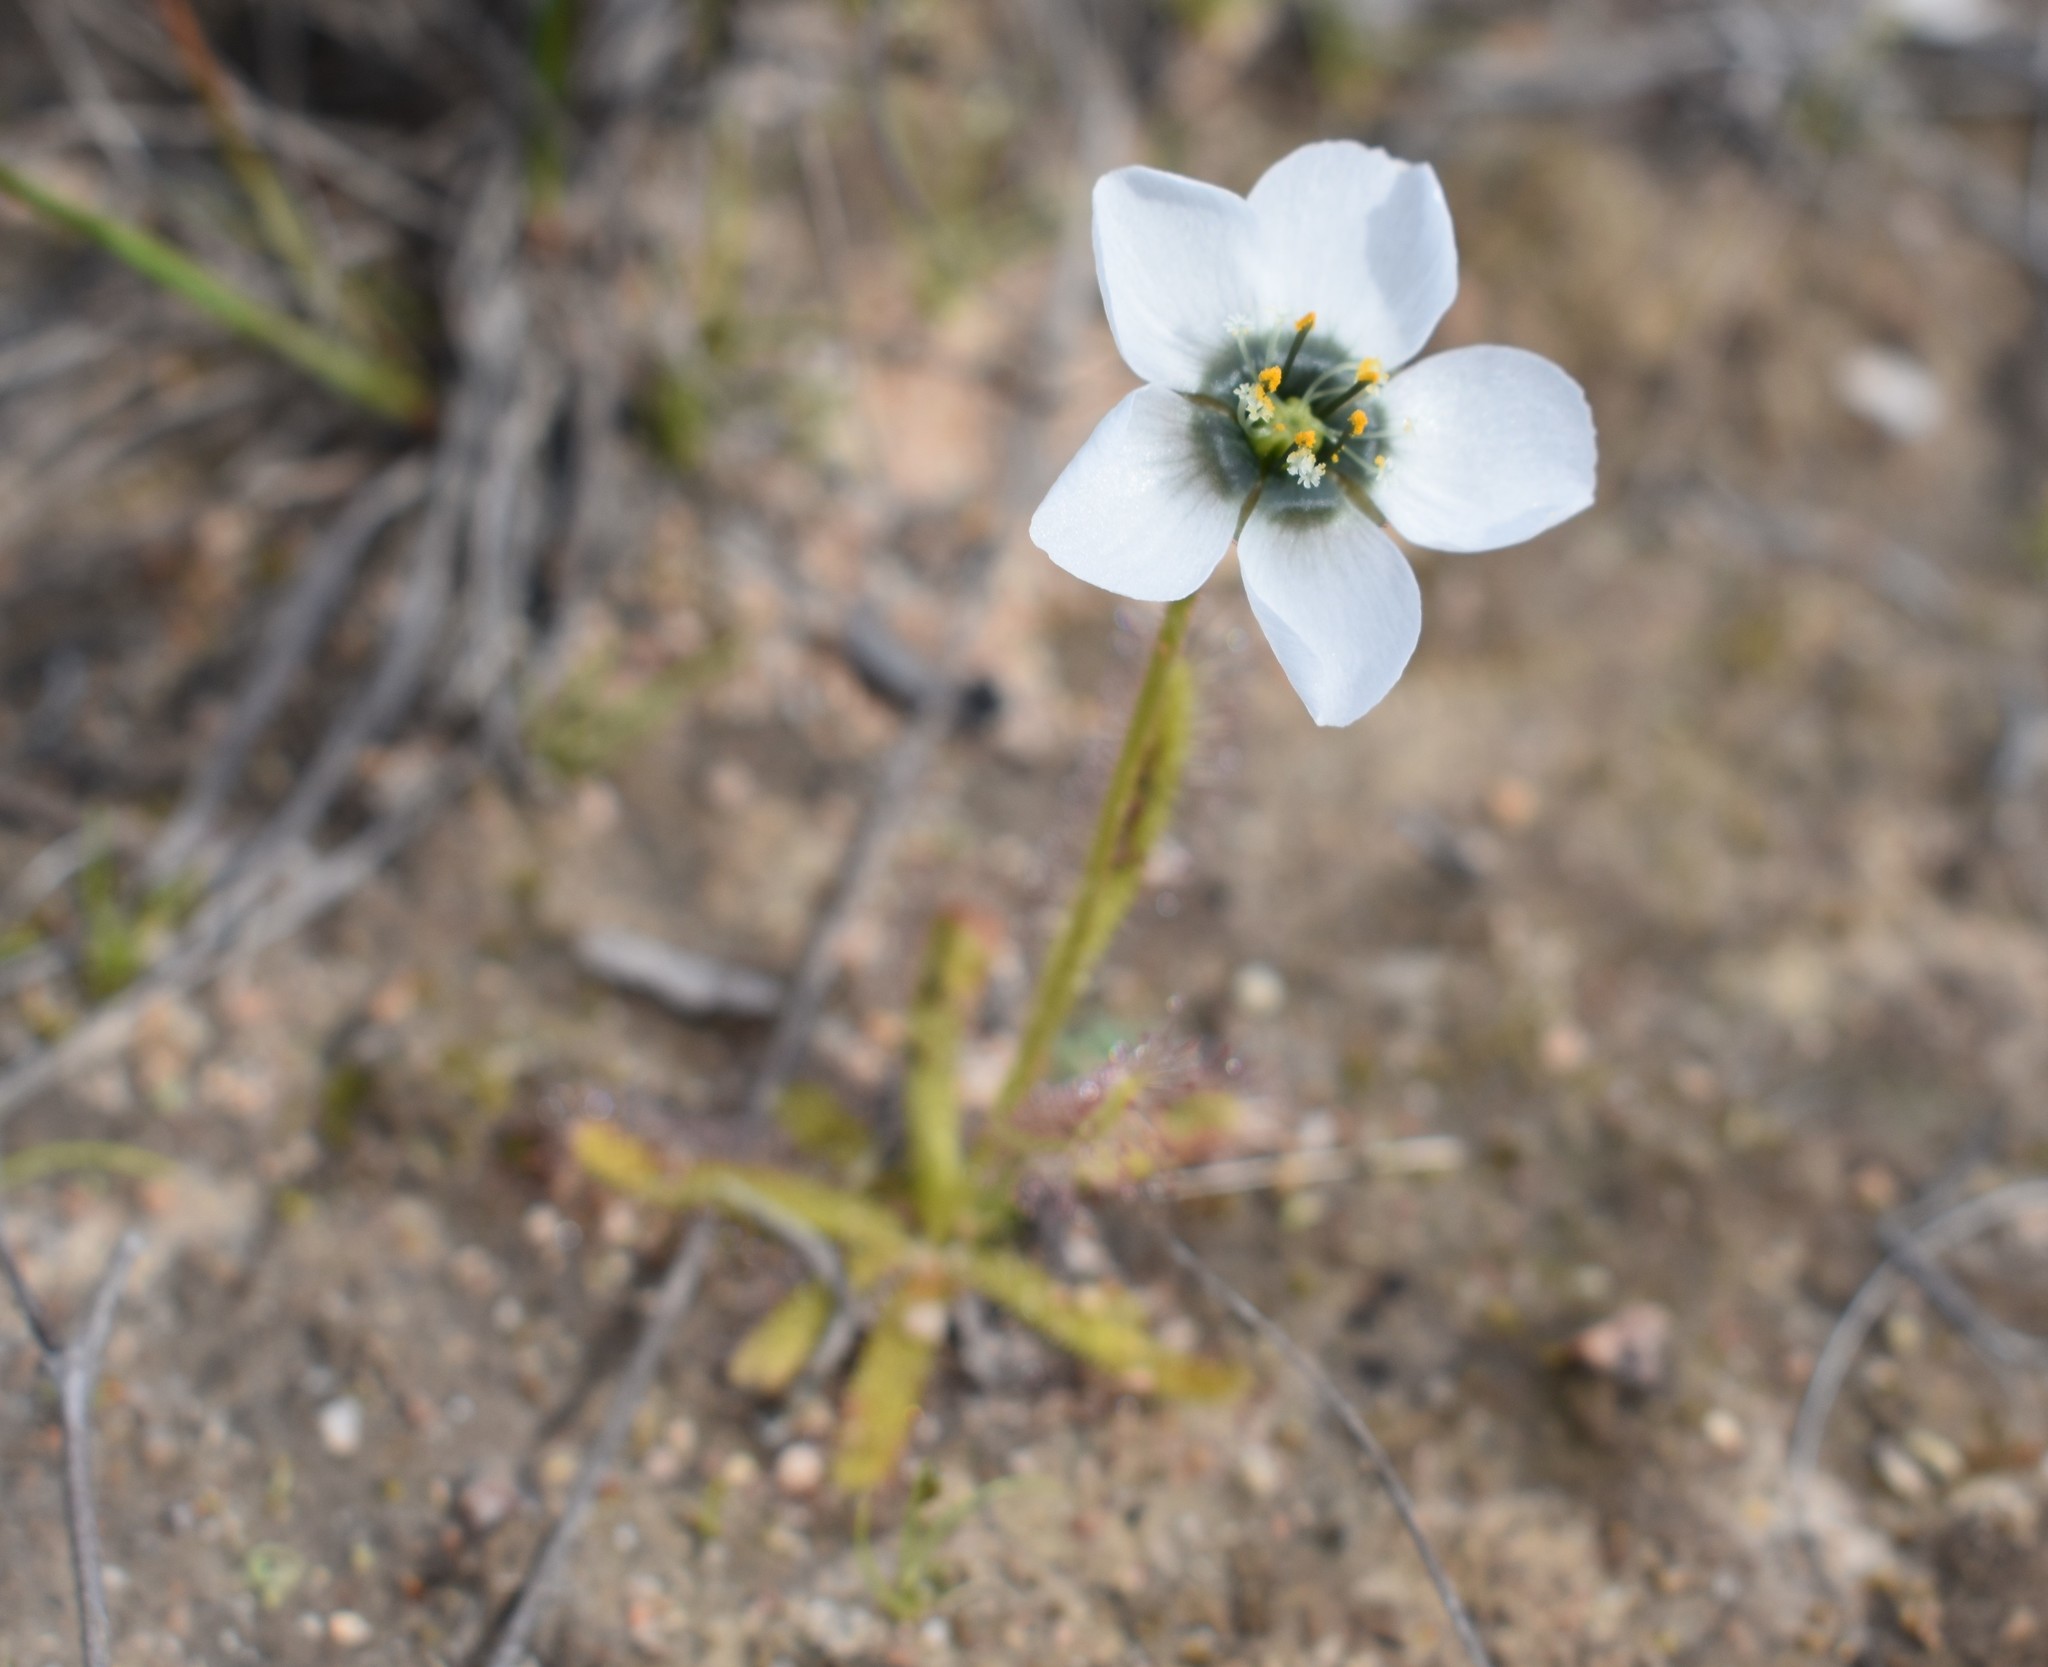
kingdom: Plantae
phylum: Tracheophyta
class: Magnoliopsida
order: Caryophyllales
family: Droseraceae
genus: Drosera
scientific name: Drosera cistiflora
